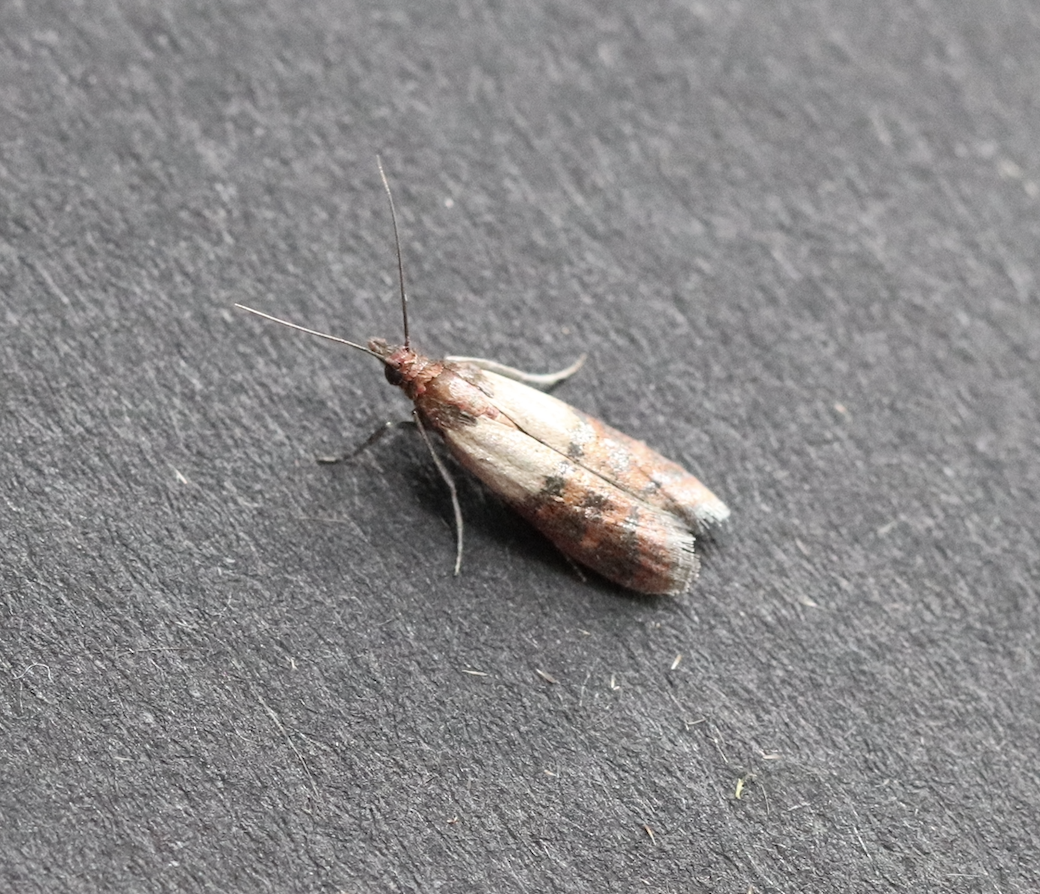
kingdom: Animalia
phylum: Arthropoda
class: Insecta
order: Lepidoptera
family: Pyralidae
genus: Plodia
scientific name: Plodia interpunctella
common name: Indian meal moth
